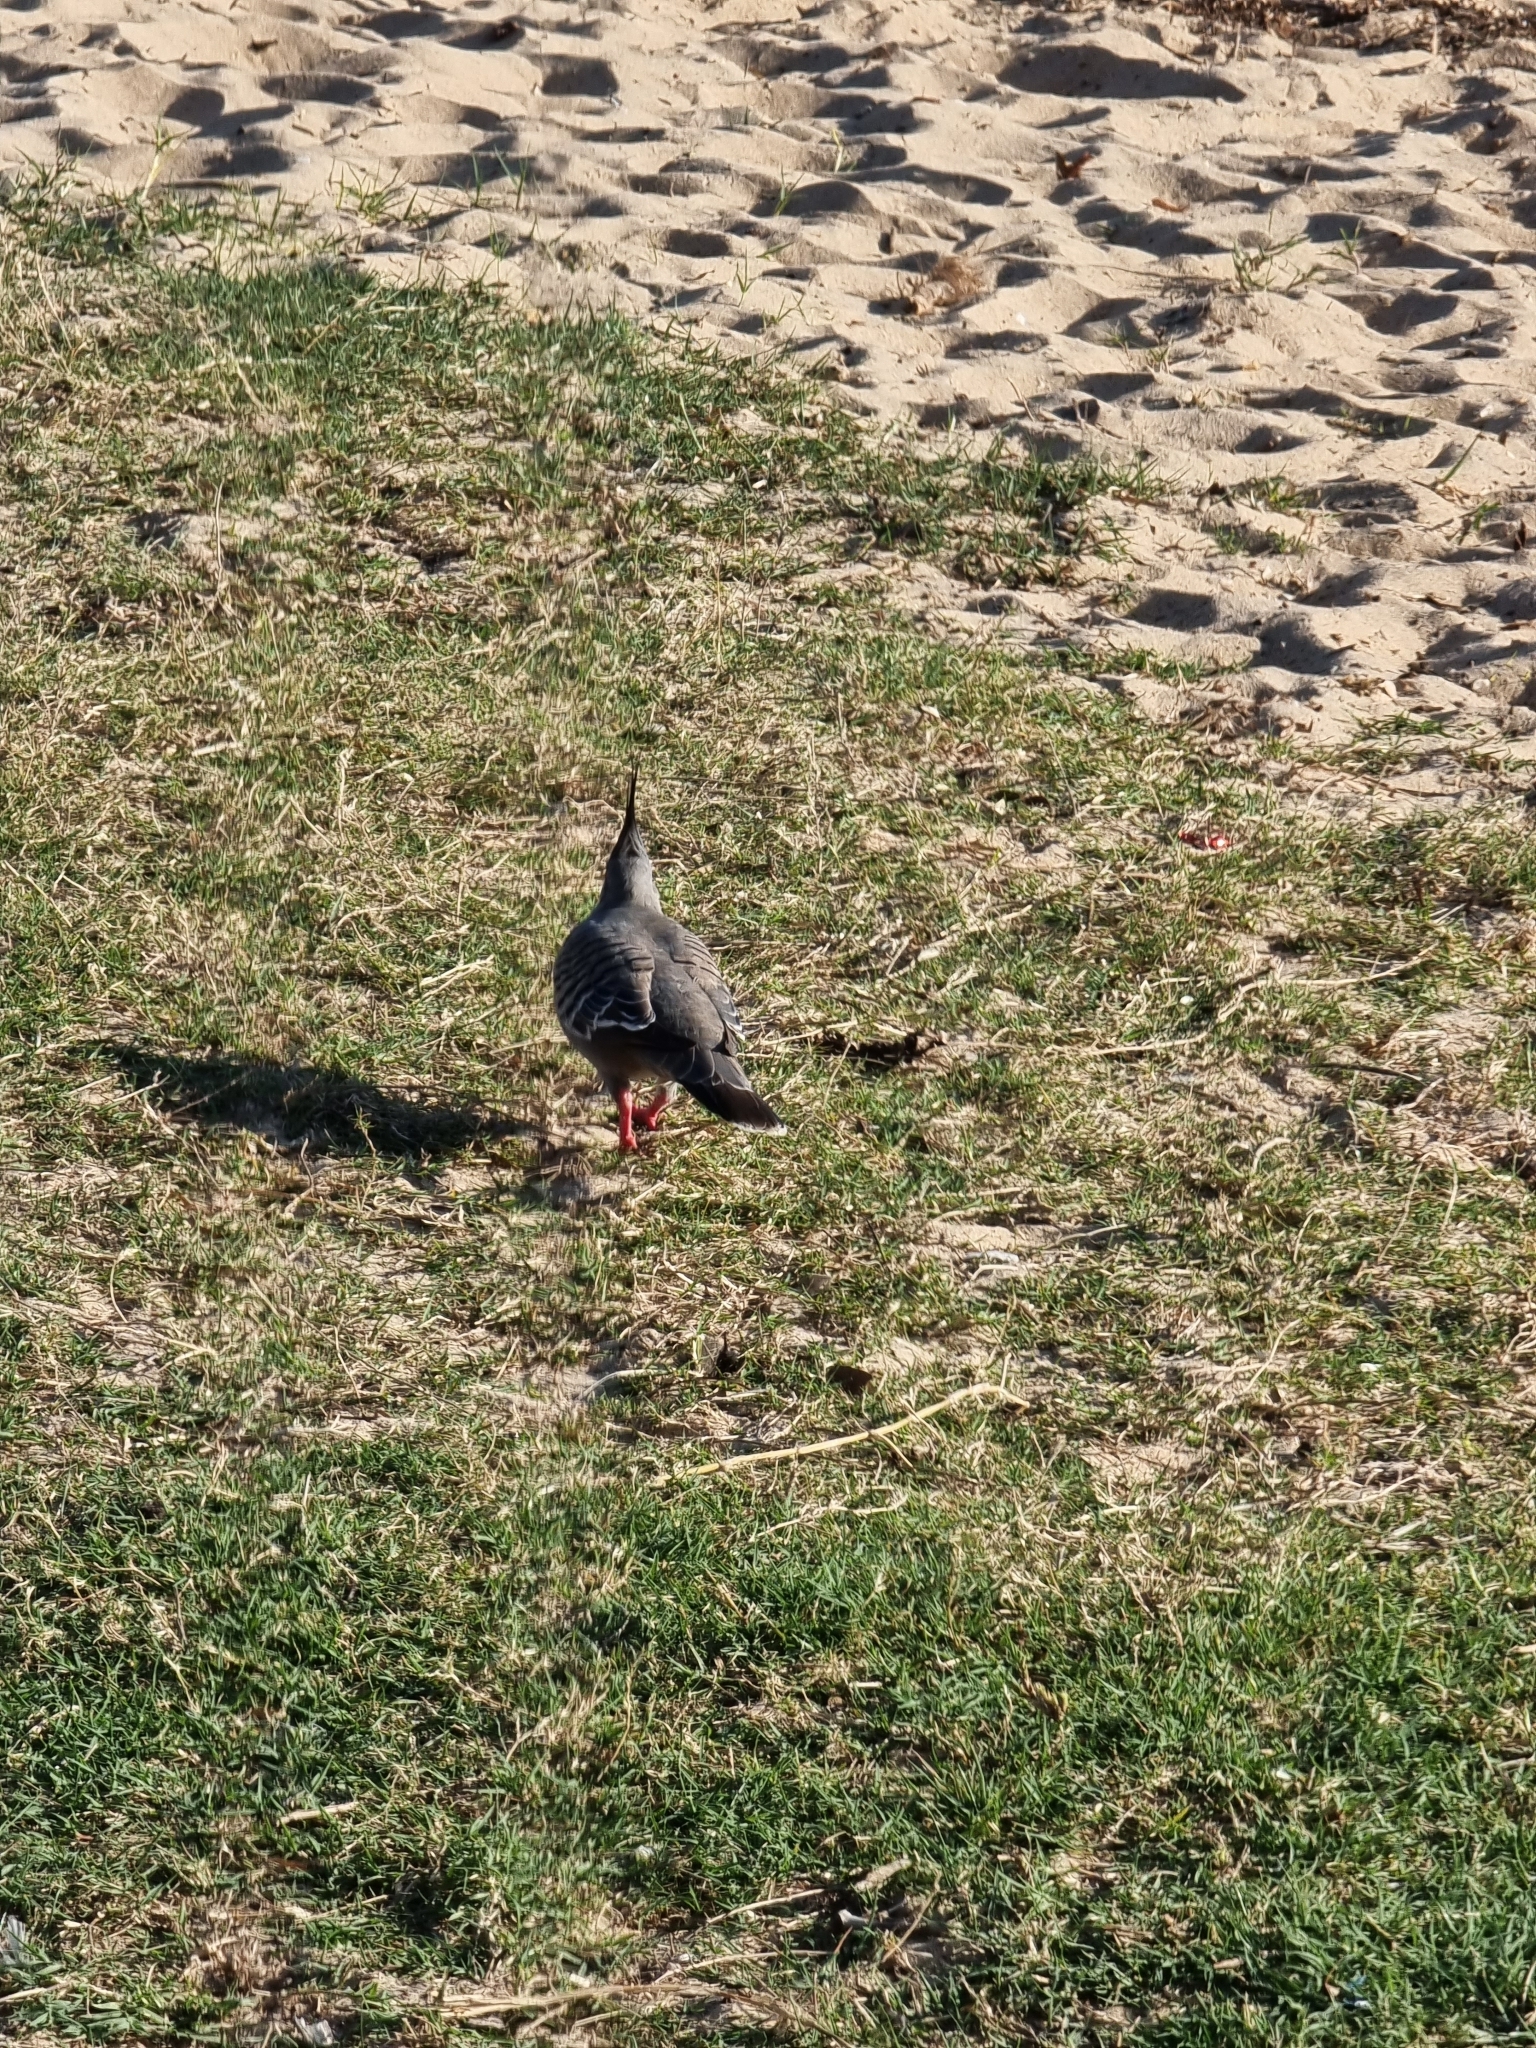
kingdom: Animalia
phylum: Chordata
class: Aves
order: Columbiformes
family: Columbidae
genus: Ocyphaps
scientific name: Ocyphaps lophotes
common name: Crested pigeon
